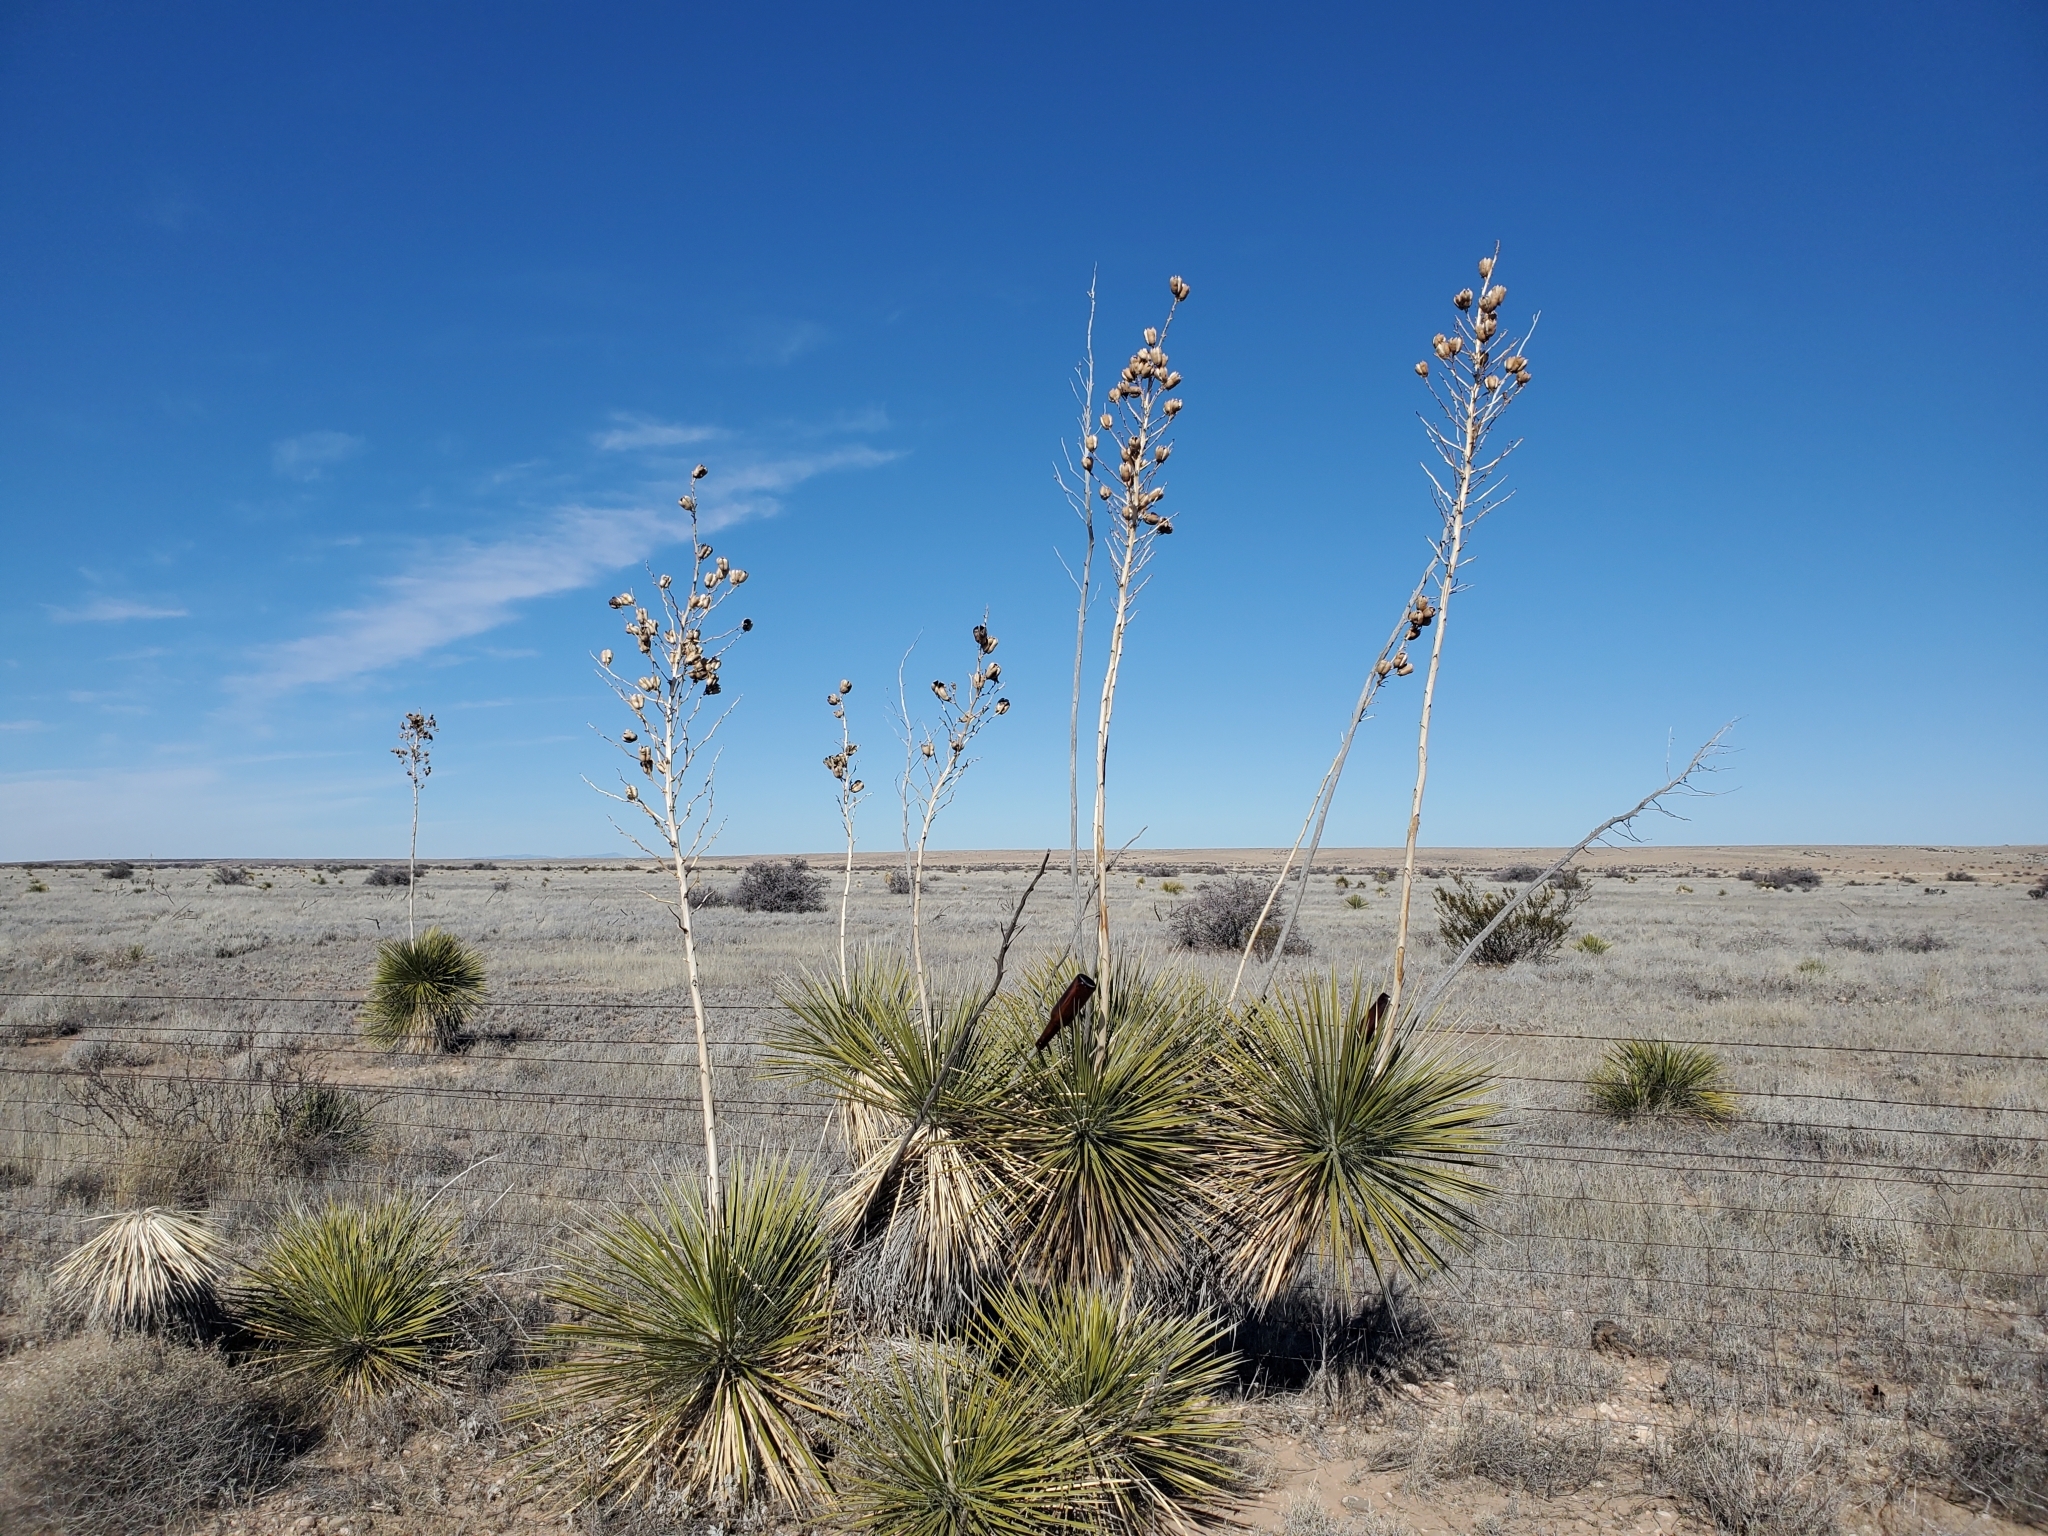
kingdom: Plantae
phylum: Tracheophyta
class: Liliopsida
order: Asparagales
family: Asparagaceae
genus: Yucca
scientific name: Yucca elata
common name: Palmella
